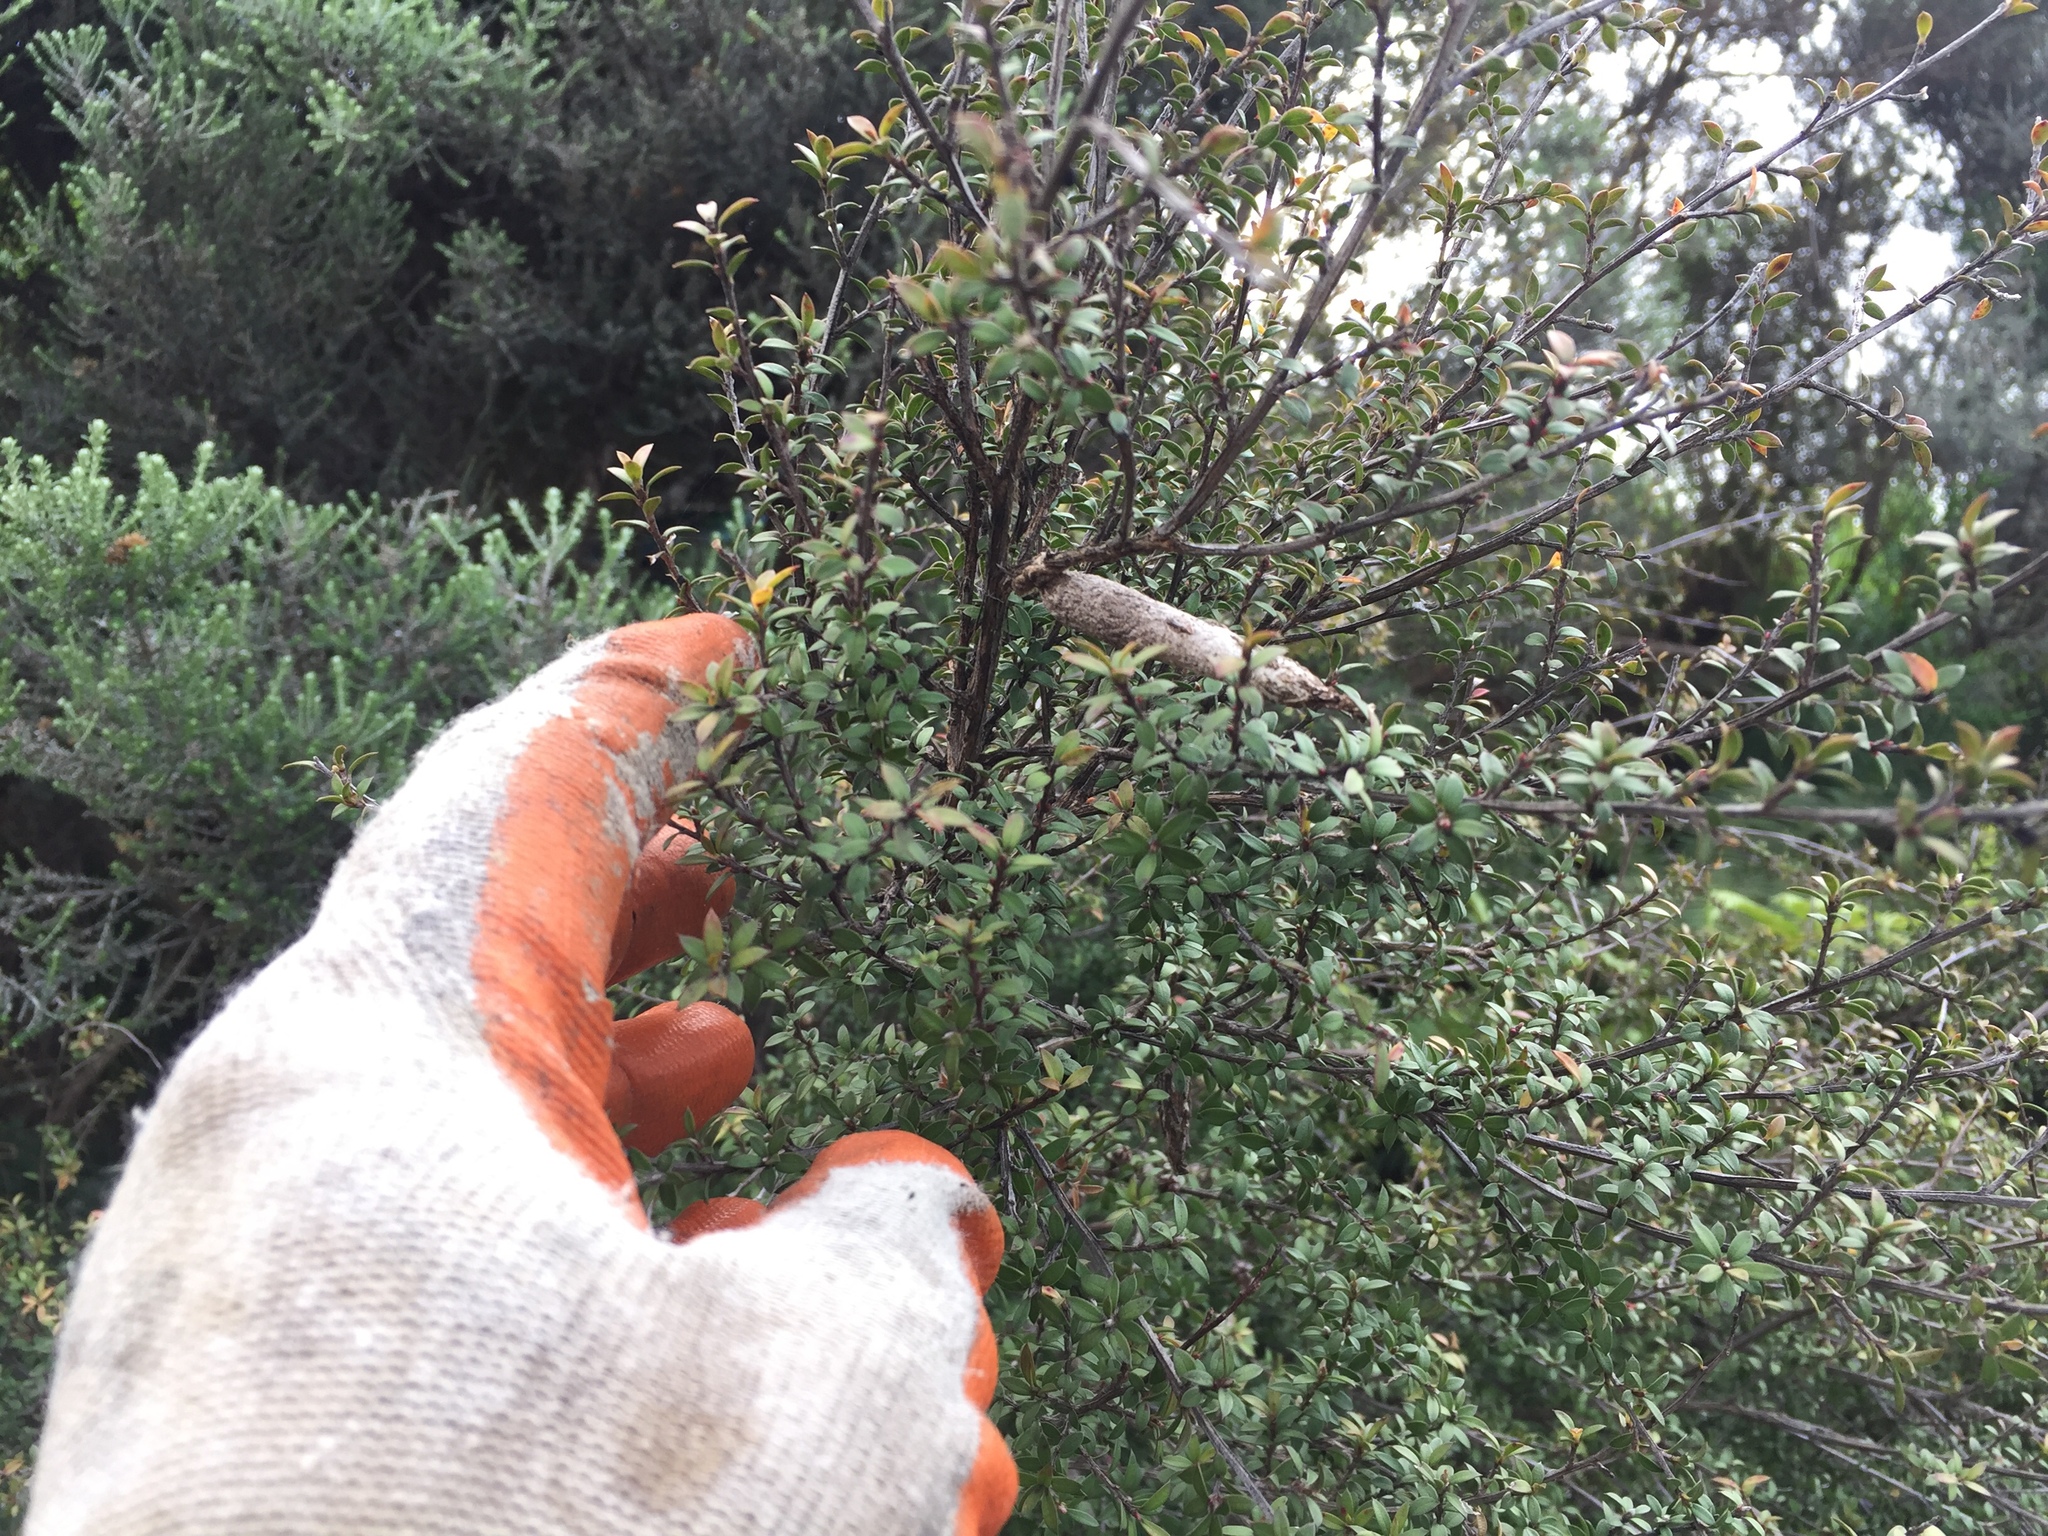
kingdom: Animalia
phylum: Arthropoda
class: Insecta
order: Lepidoptera
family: Psychidae
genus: Liothula
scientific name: Liothula omnivora
